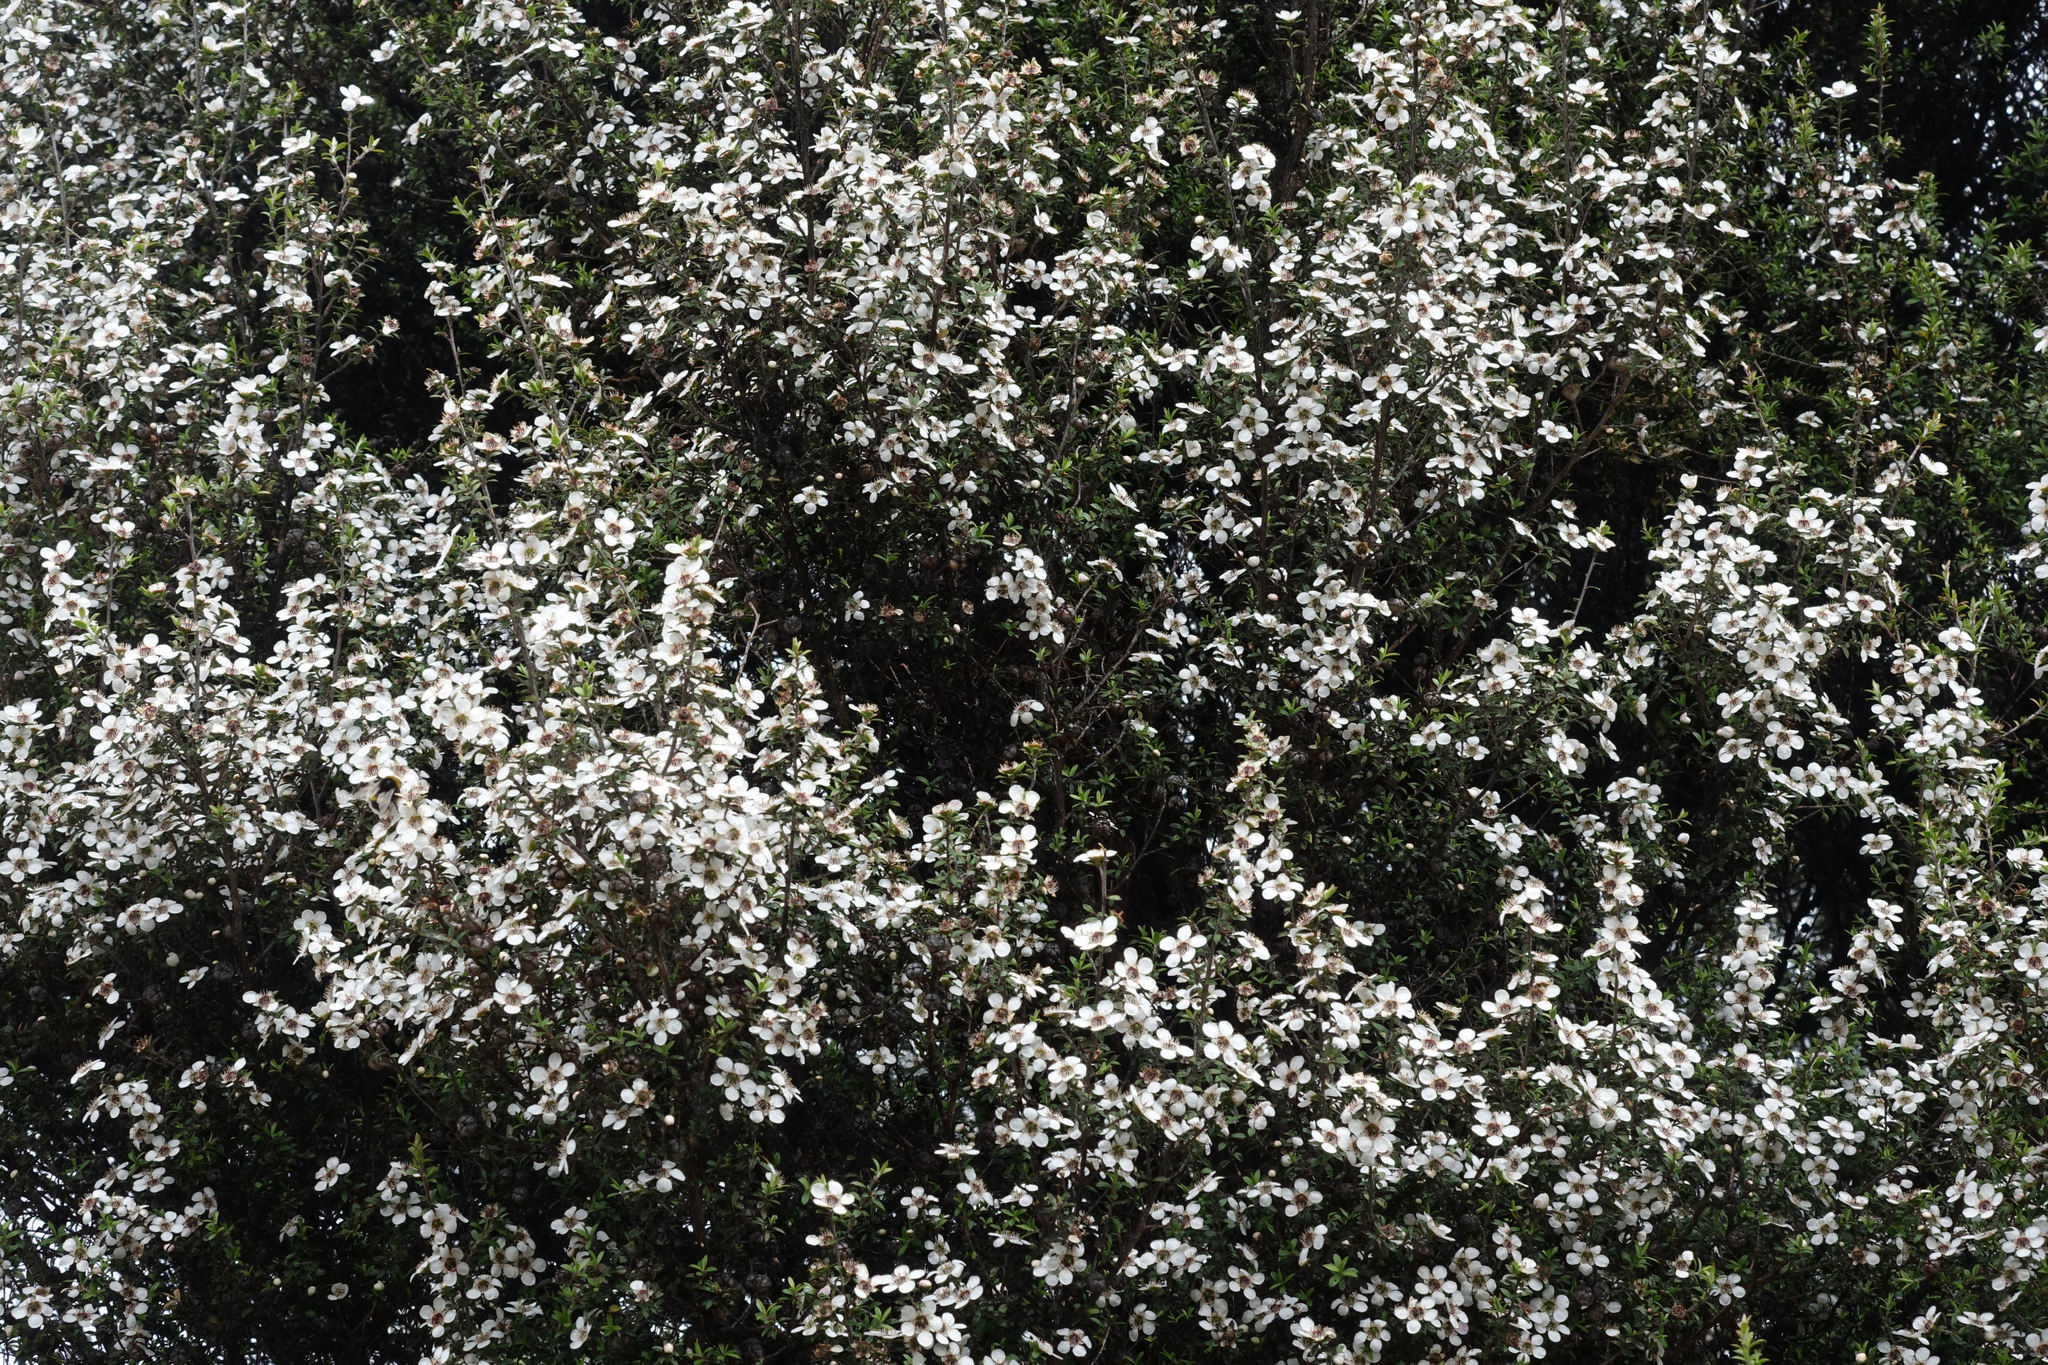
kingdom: Plantae
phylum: Tracheophyta
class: Magnoliopsida
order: Myrtales
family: Myrtaceae
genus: Leptospermum
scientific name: Leptospermum scoparium
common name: Broom tea-tree
